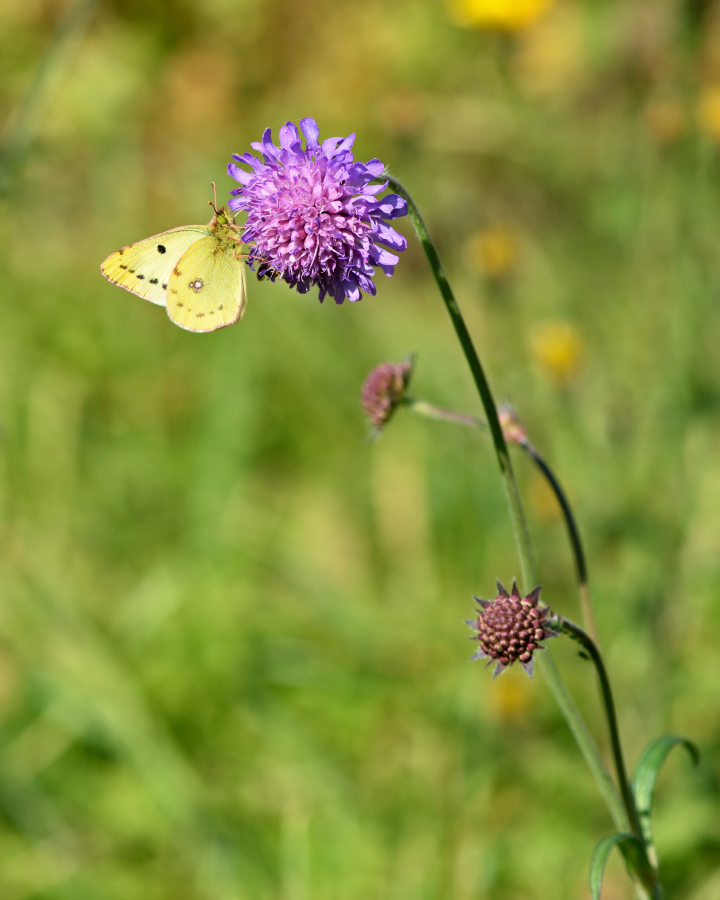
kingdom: Animalia
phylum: Arthropoda
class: Insecta
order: Lepidoptera
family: Pieridae
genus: Colias
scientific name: Colias hyale
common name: Pale clouded yellow
